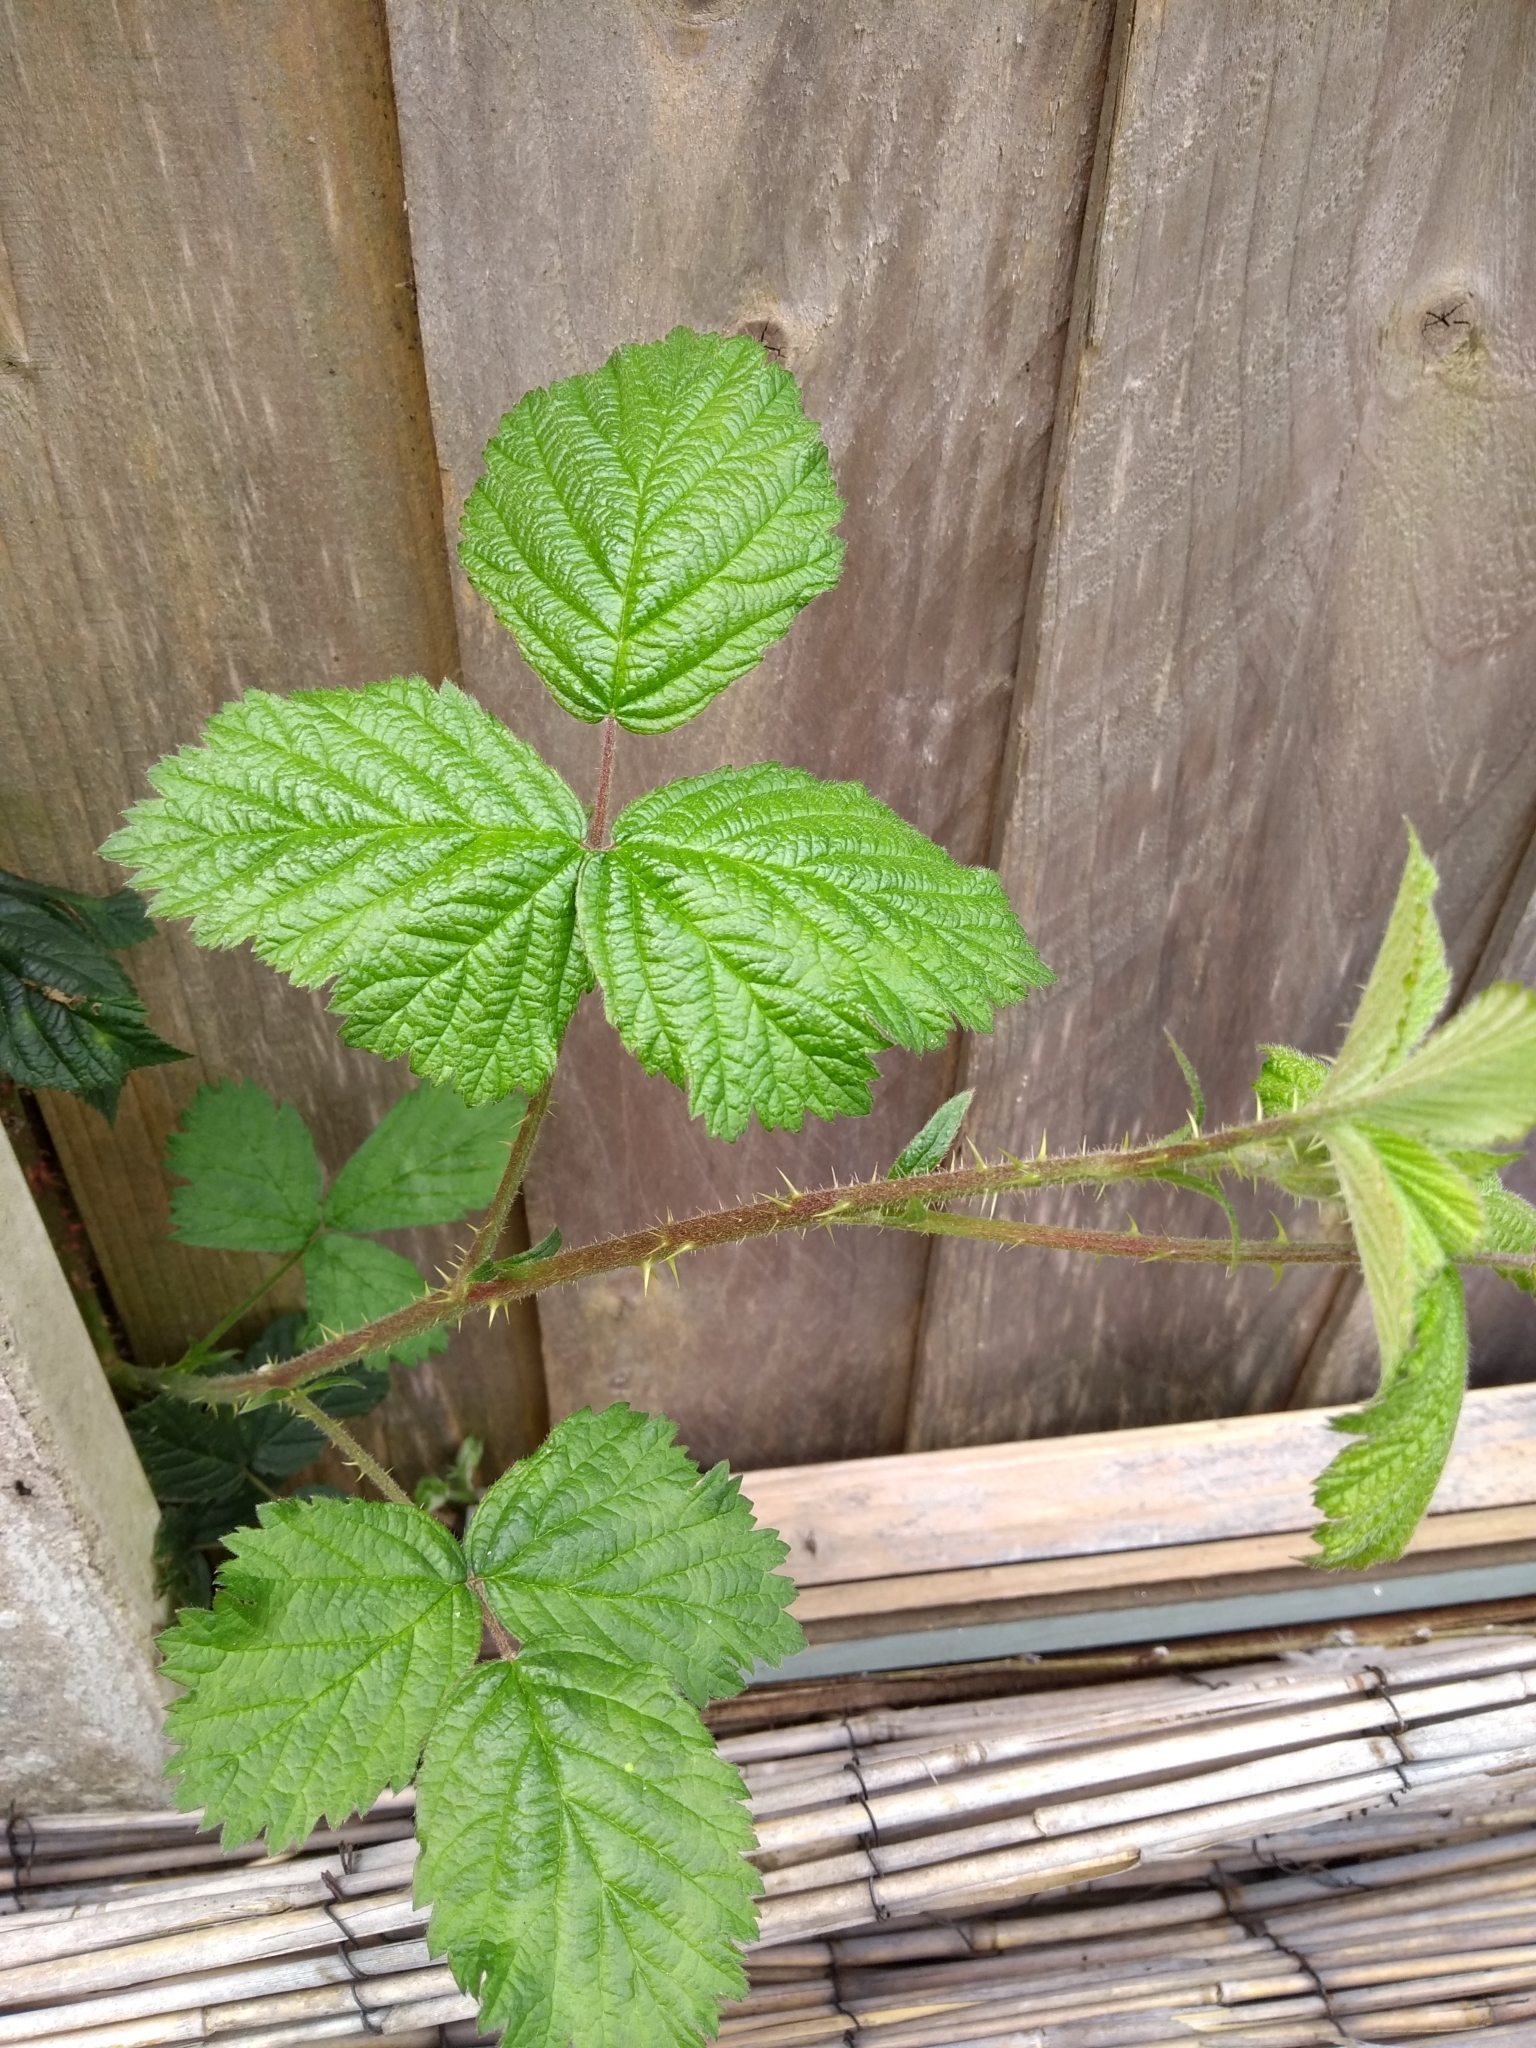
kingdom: Plantae
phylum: Tracheophyta
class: Magnoliopsida
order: Rosales
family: Rosaceae
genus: Rubus
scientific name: Rubus
